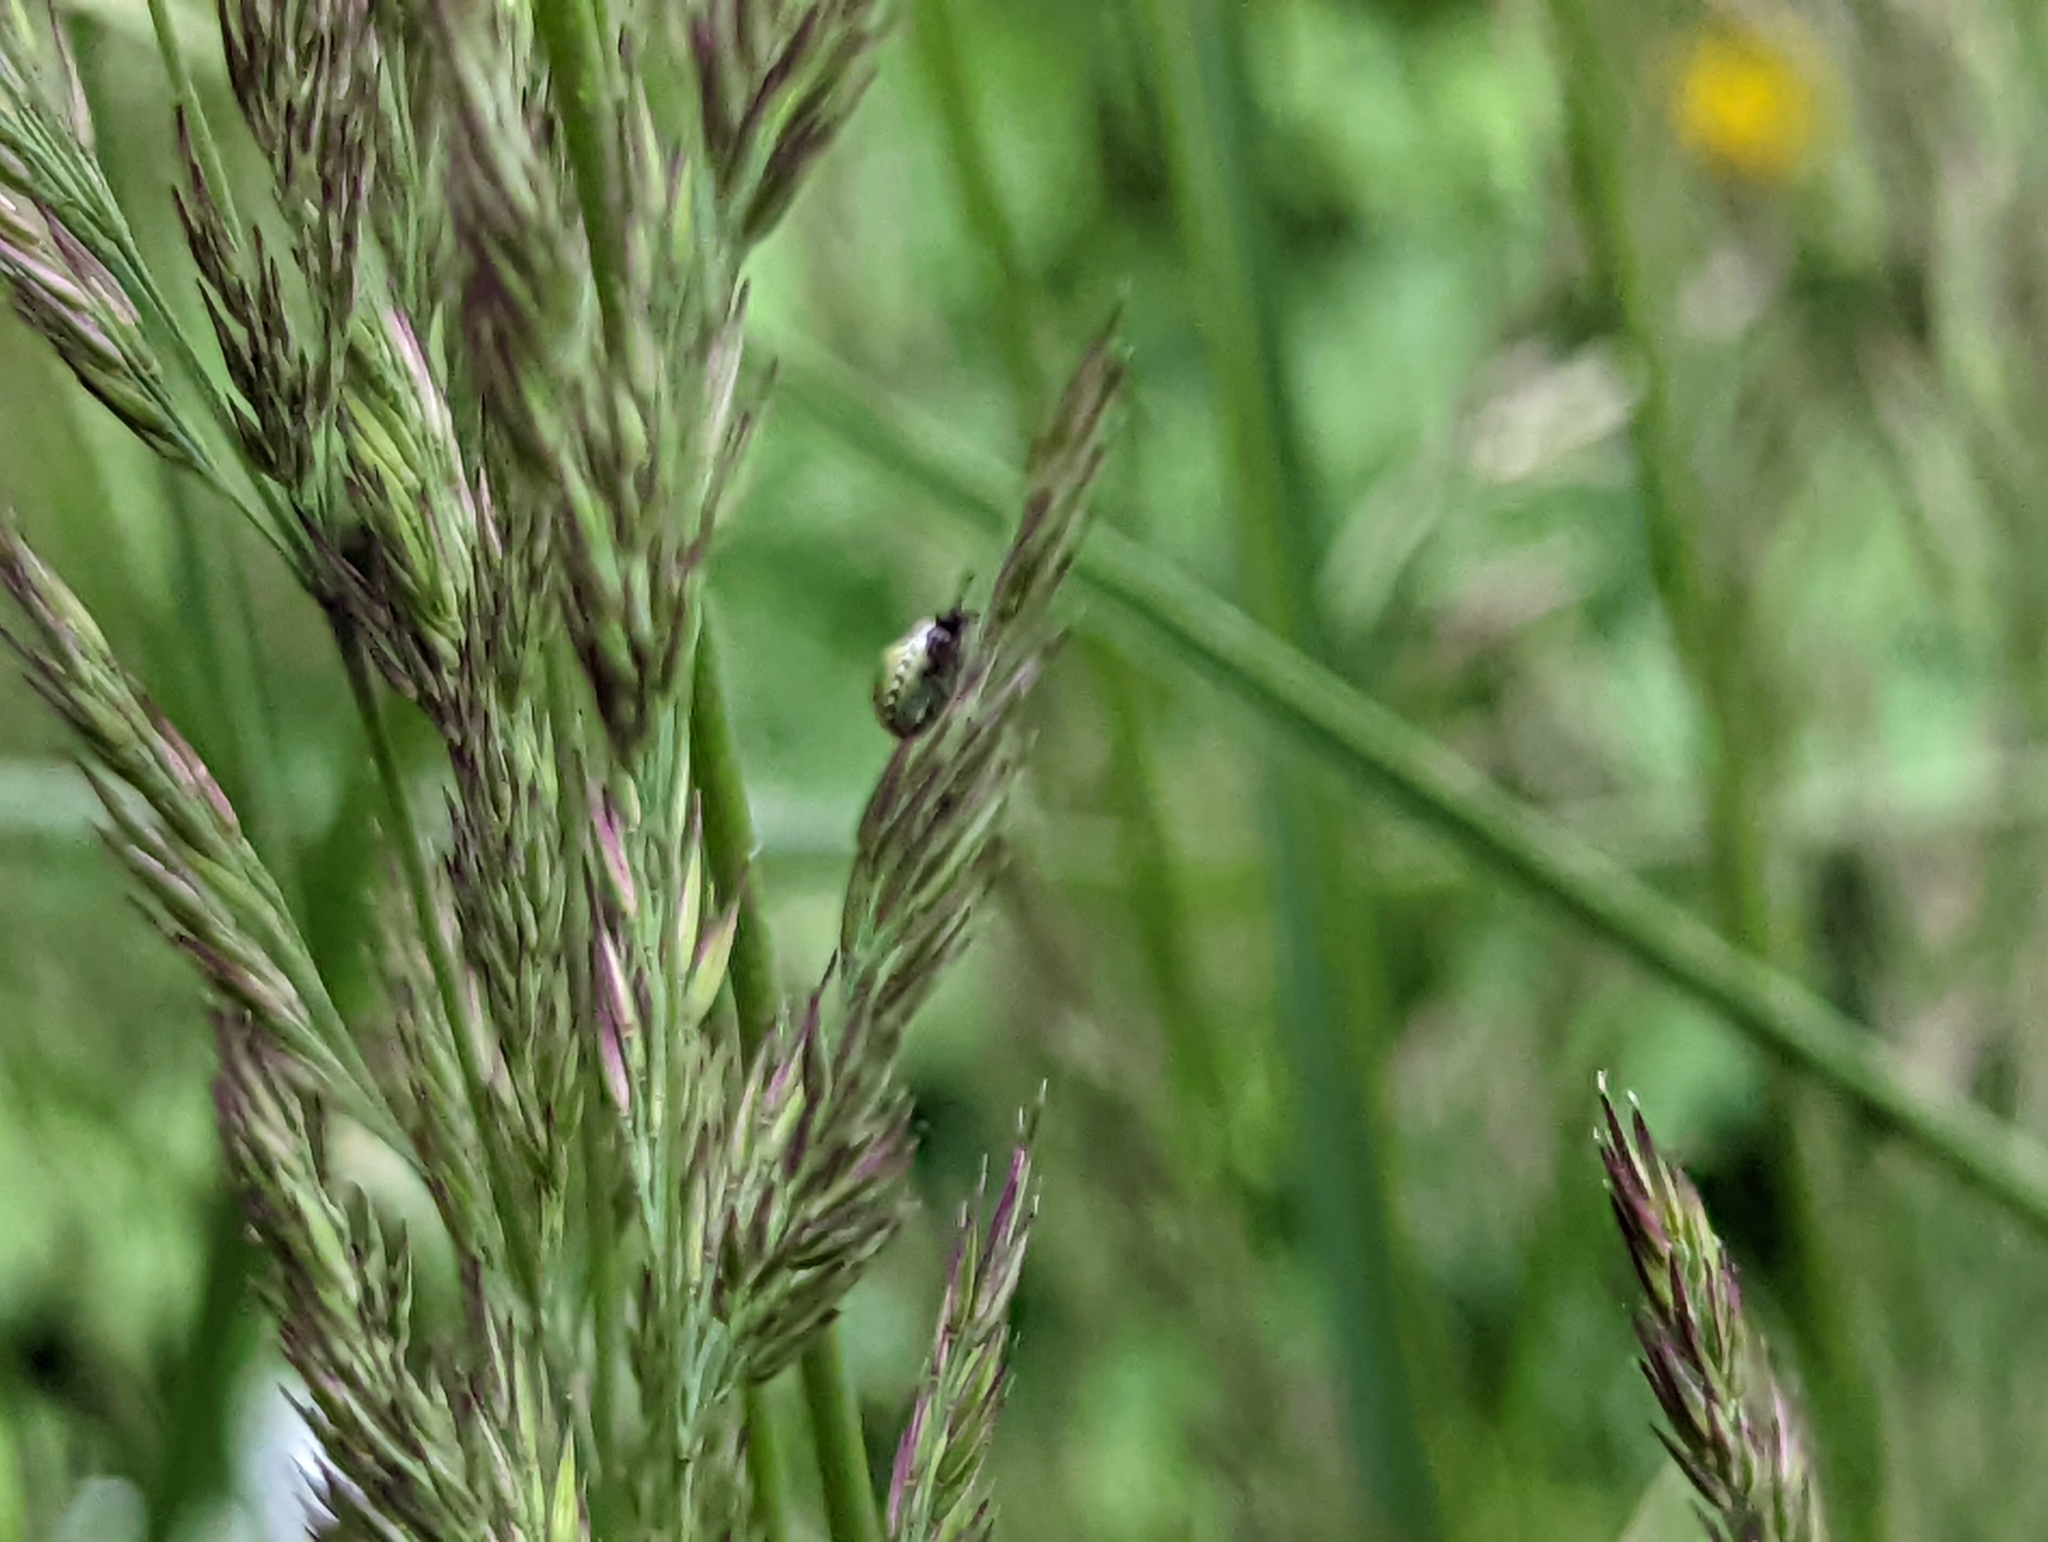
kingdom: Animalia
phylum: Arthropoda
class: Insecta
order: Hemiptera
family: Pentatomidae
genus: Palomena
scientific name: Palomena prasina
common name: Green shieldbug
